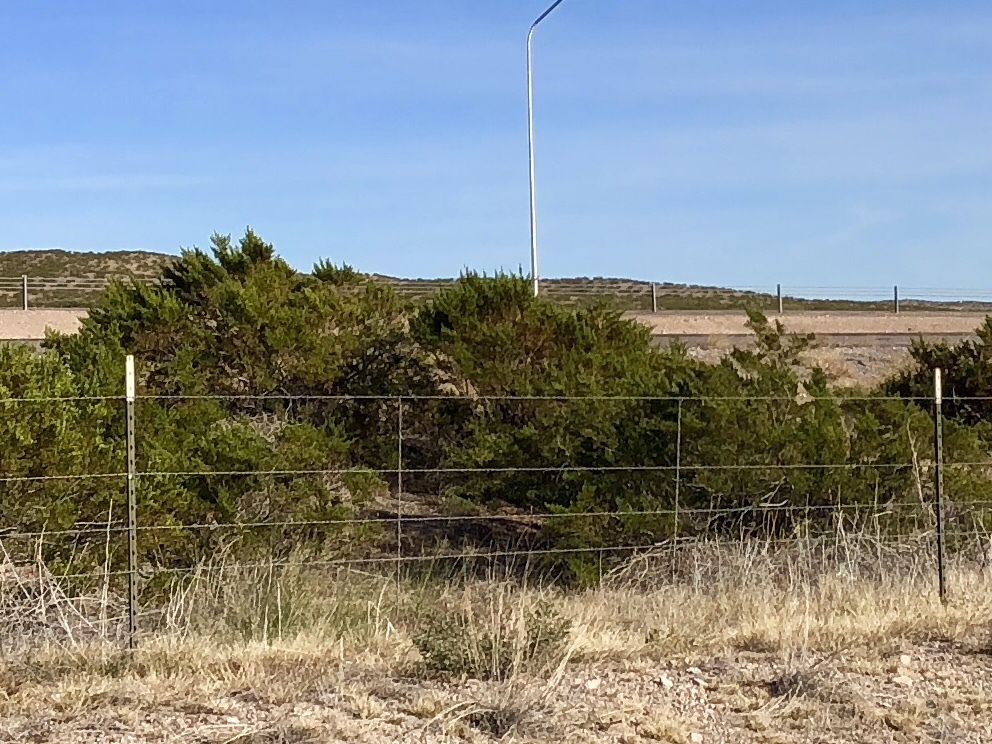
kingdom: Plantae
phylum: Tracheophyta
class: Magnoliopsida
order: Zygophyllales
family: Zygophyllaceae
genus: Larrea
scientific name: Larrea tridentata
